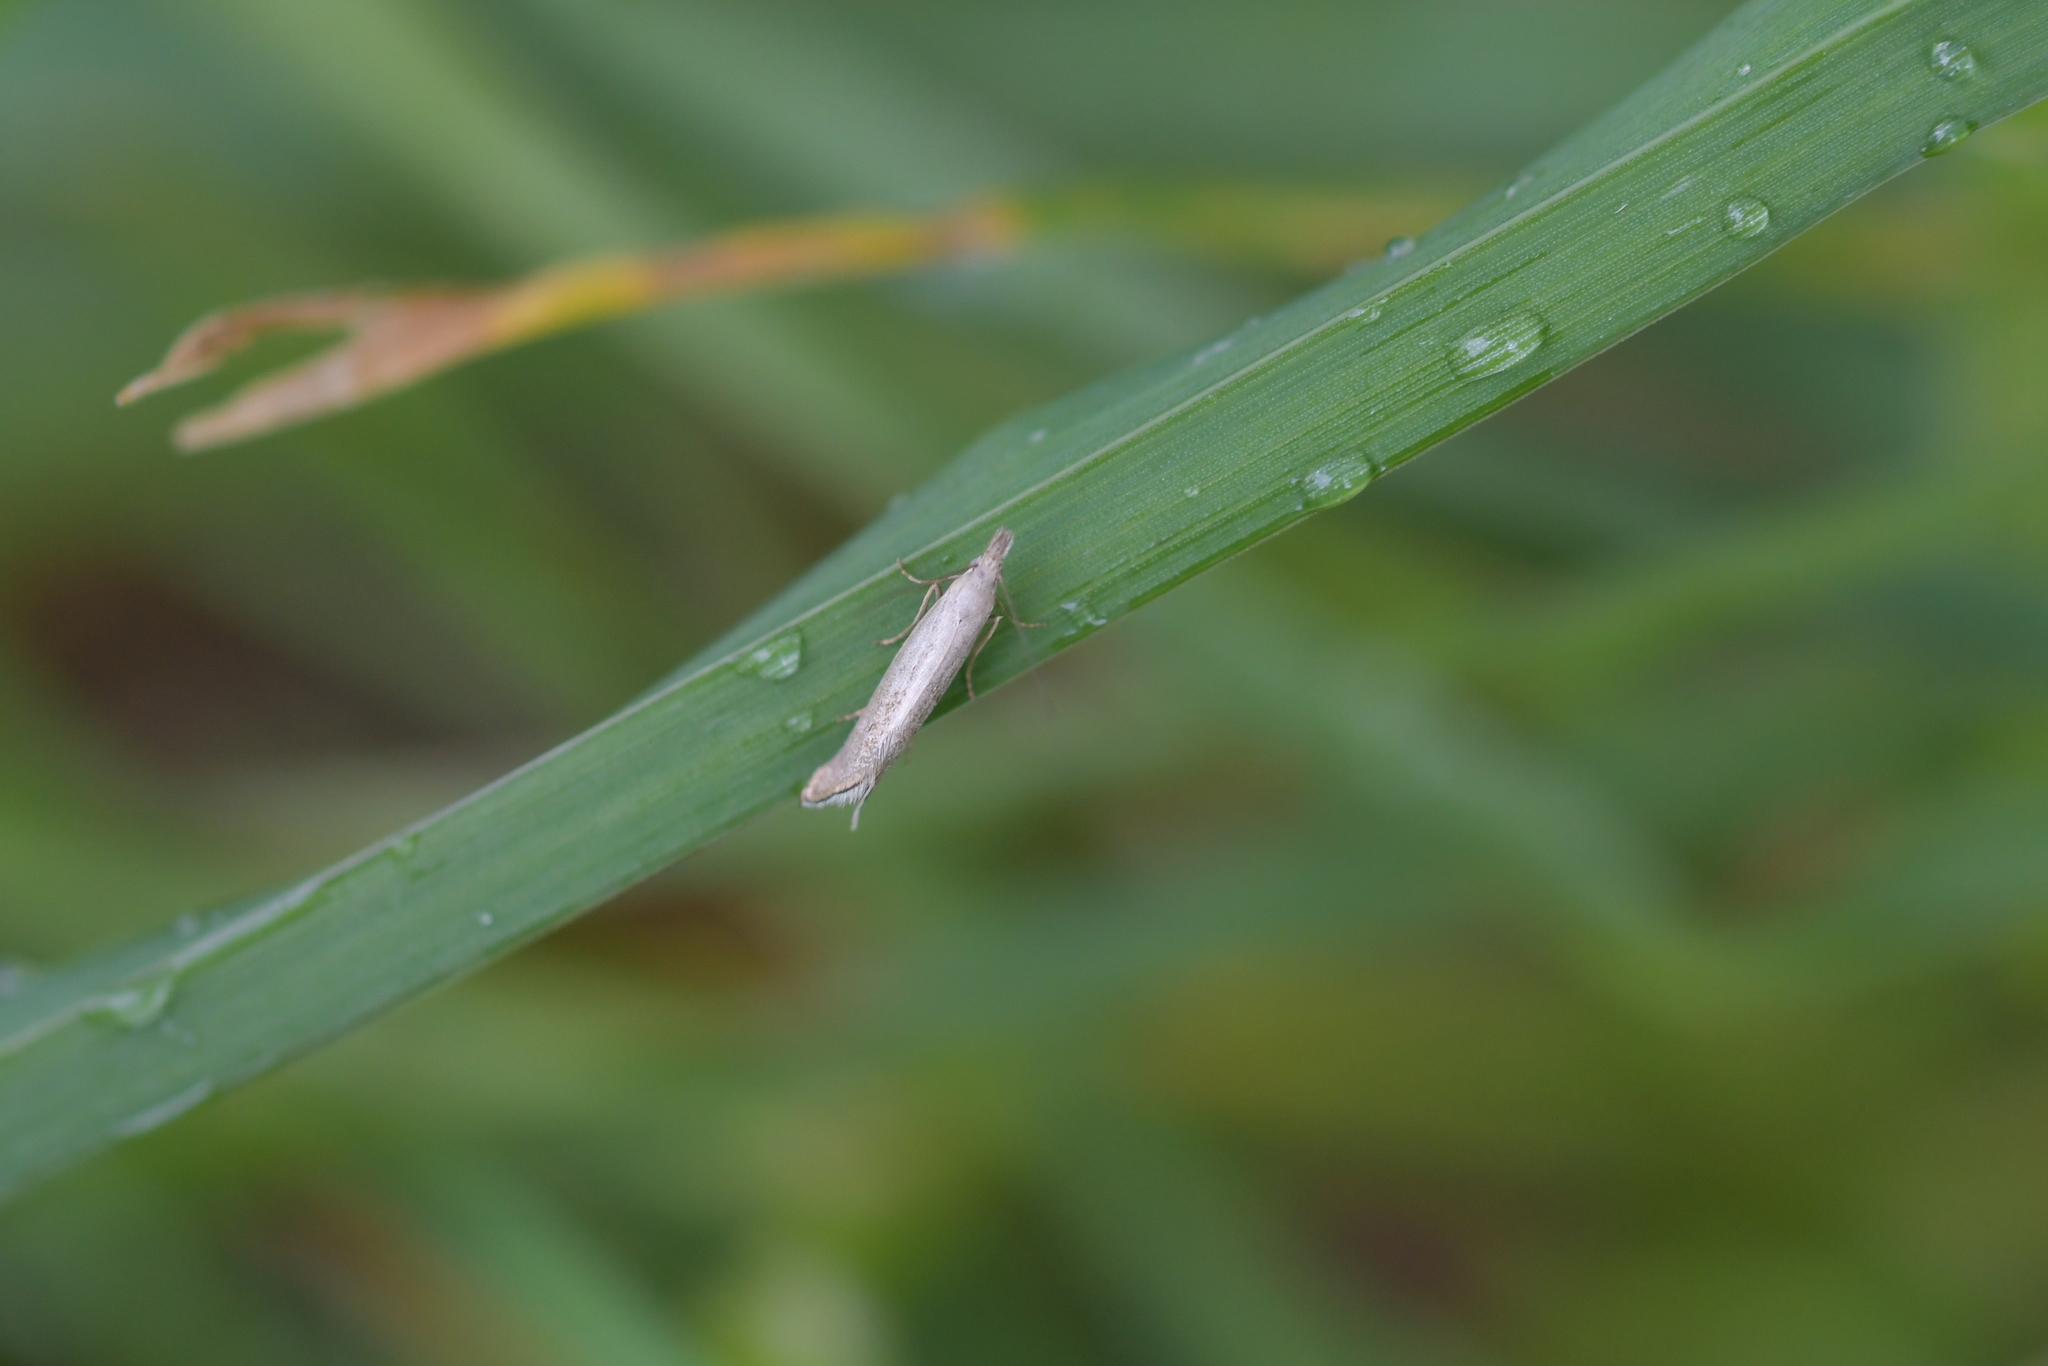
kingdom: Animalia
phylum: Arthropoda
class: Insecta
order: Lepidoptera
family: Glyphipterigidae
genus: Glyphipterix
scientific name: Glyphipterix achlyoessa
